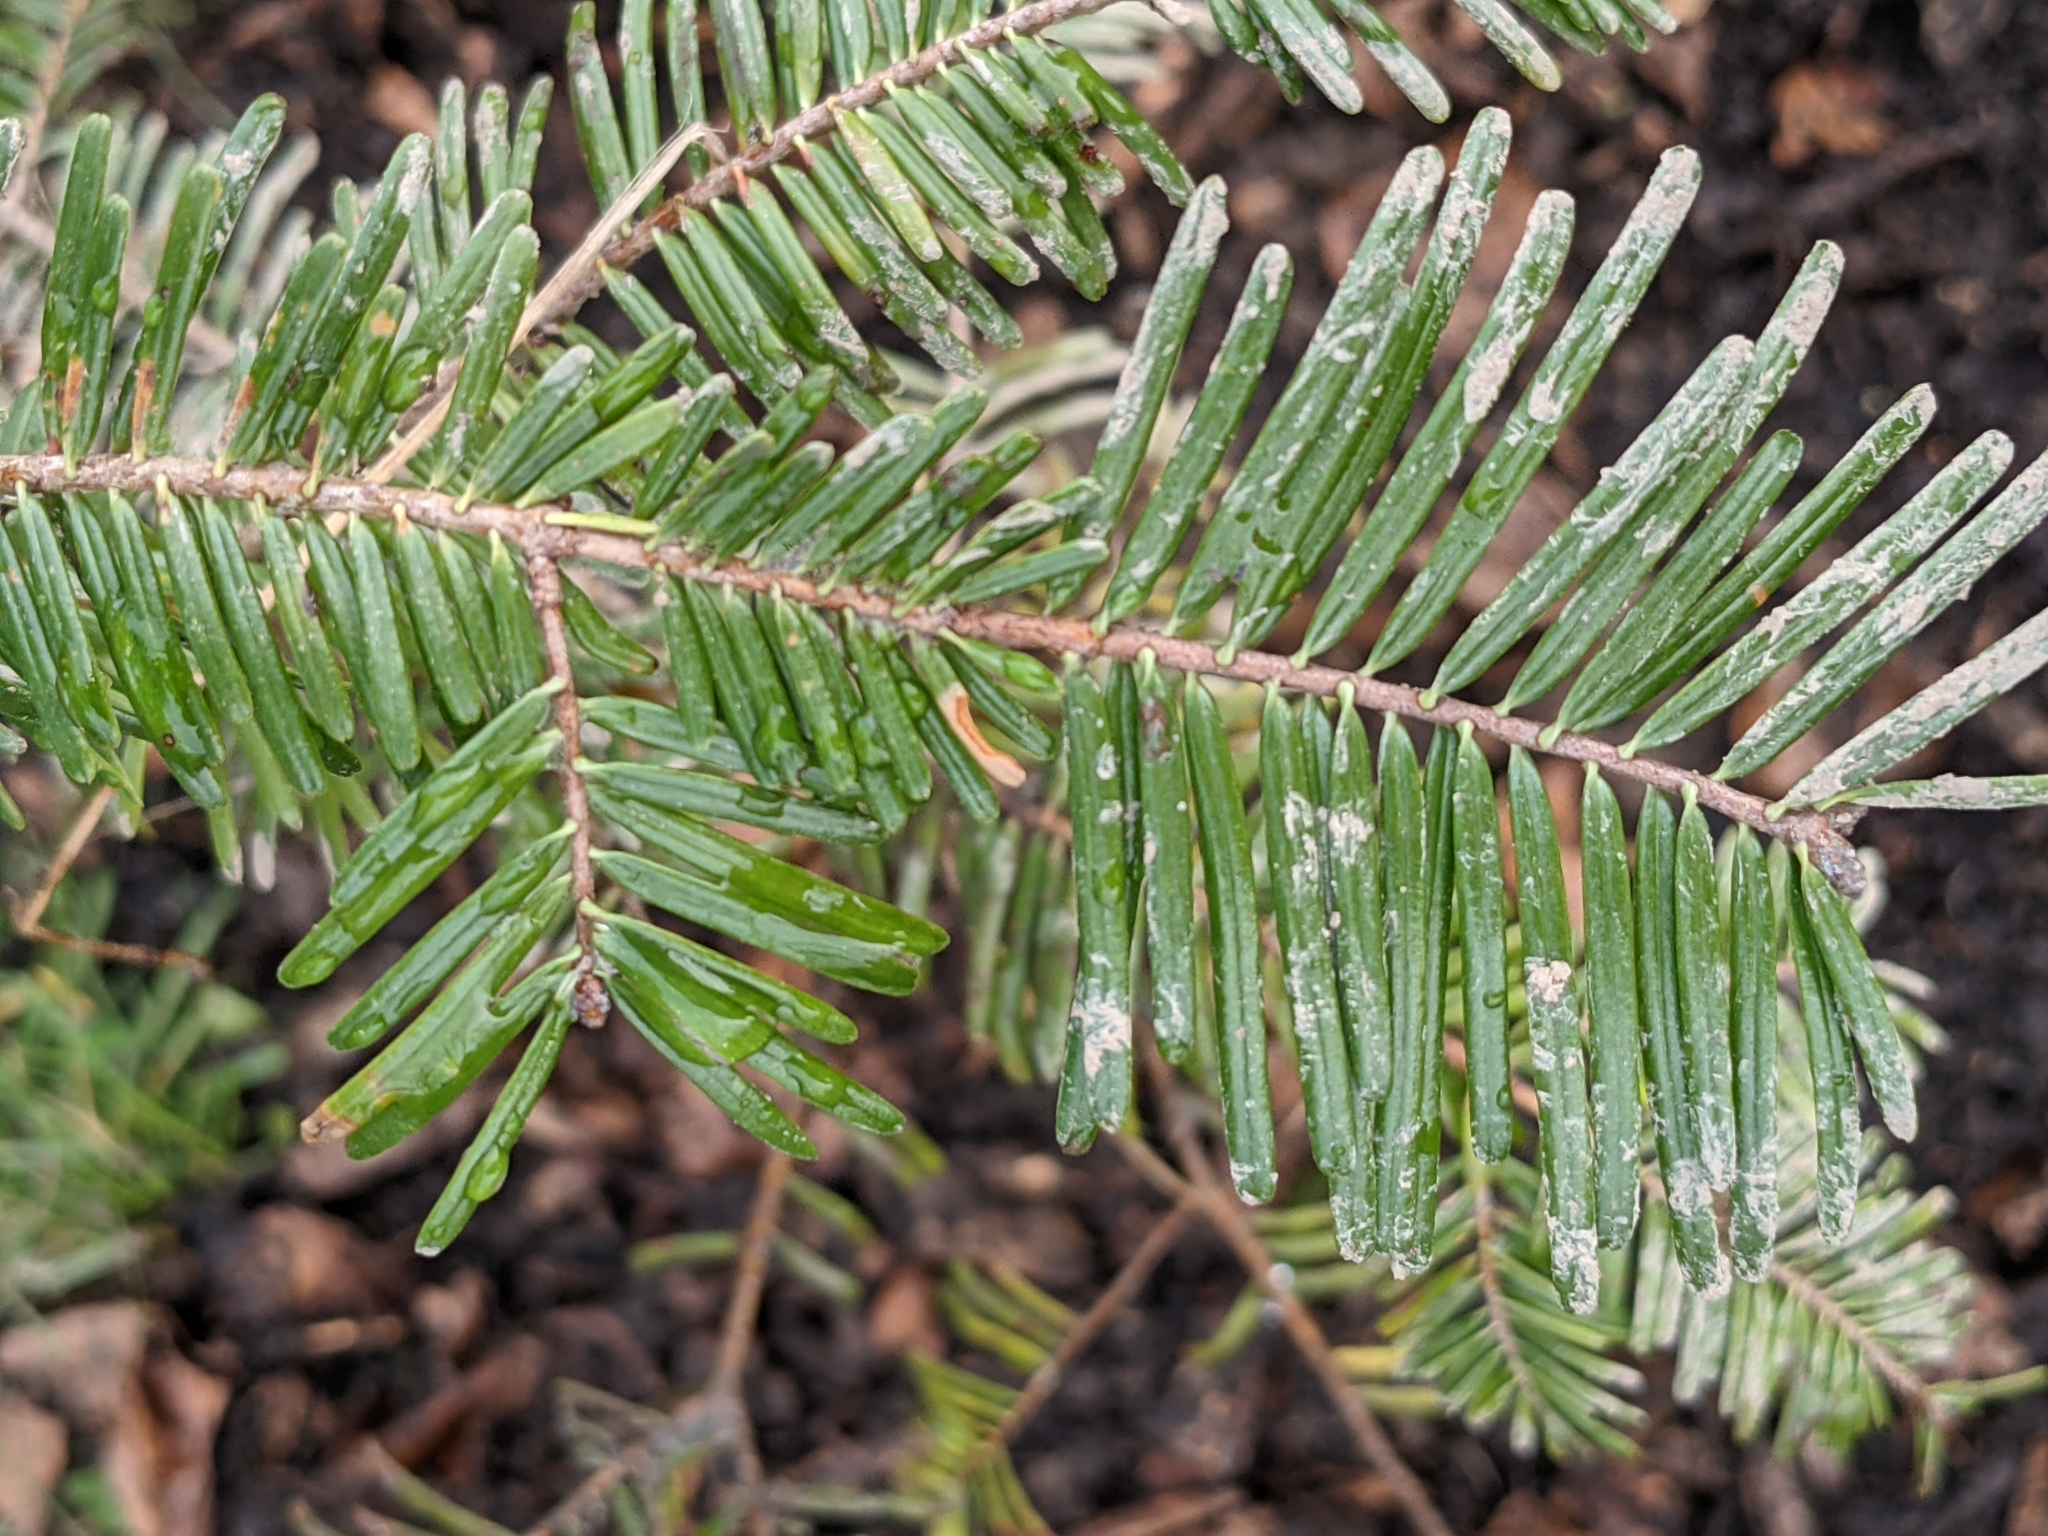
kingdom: Plantae
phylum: Tracheophyta
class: Pinopsida
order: Pinales
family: Pinaceae
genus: Abies
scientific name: Abies grandis
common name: Giant fir
